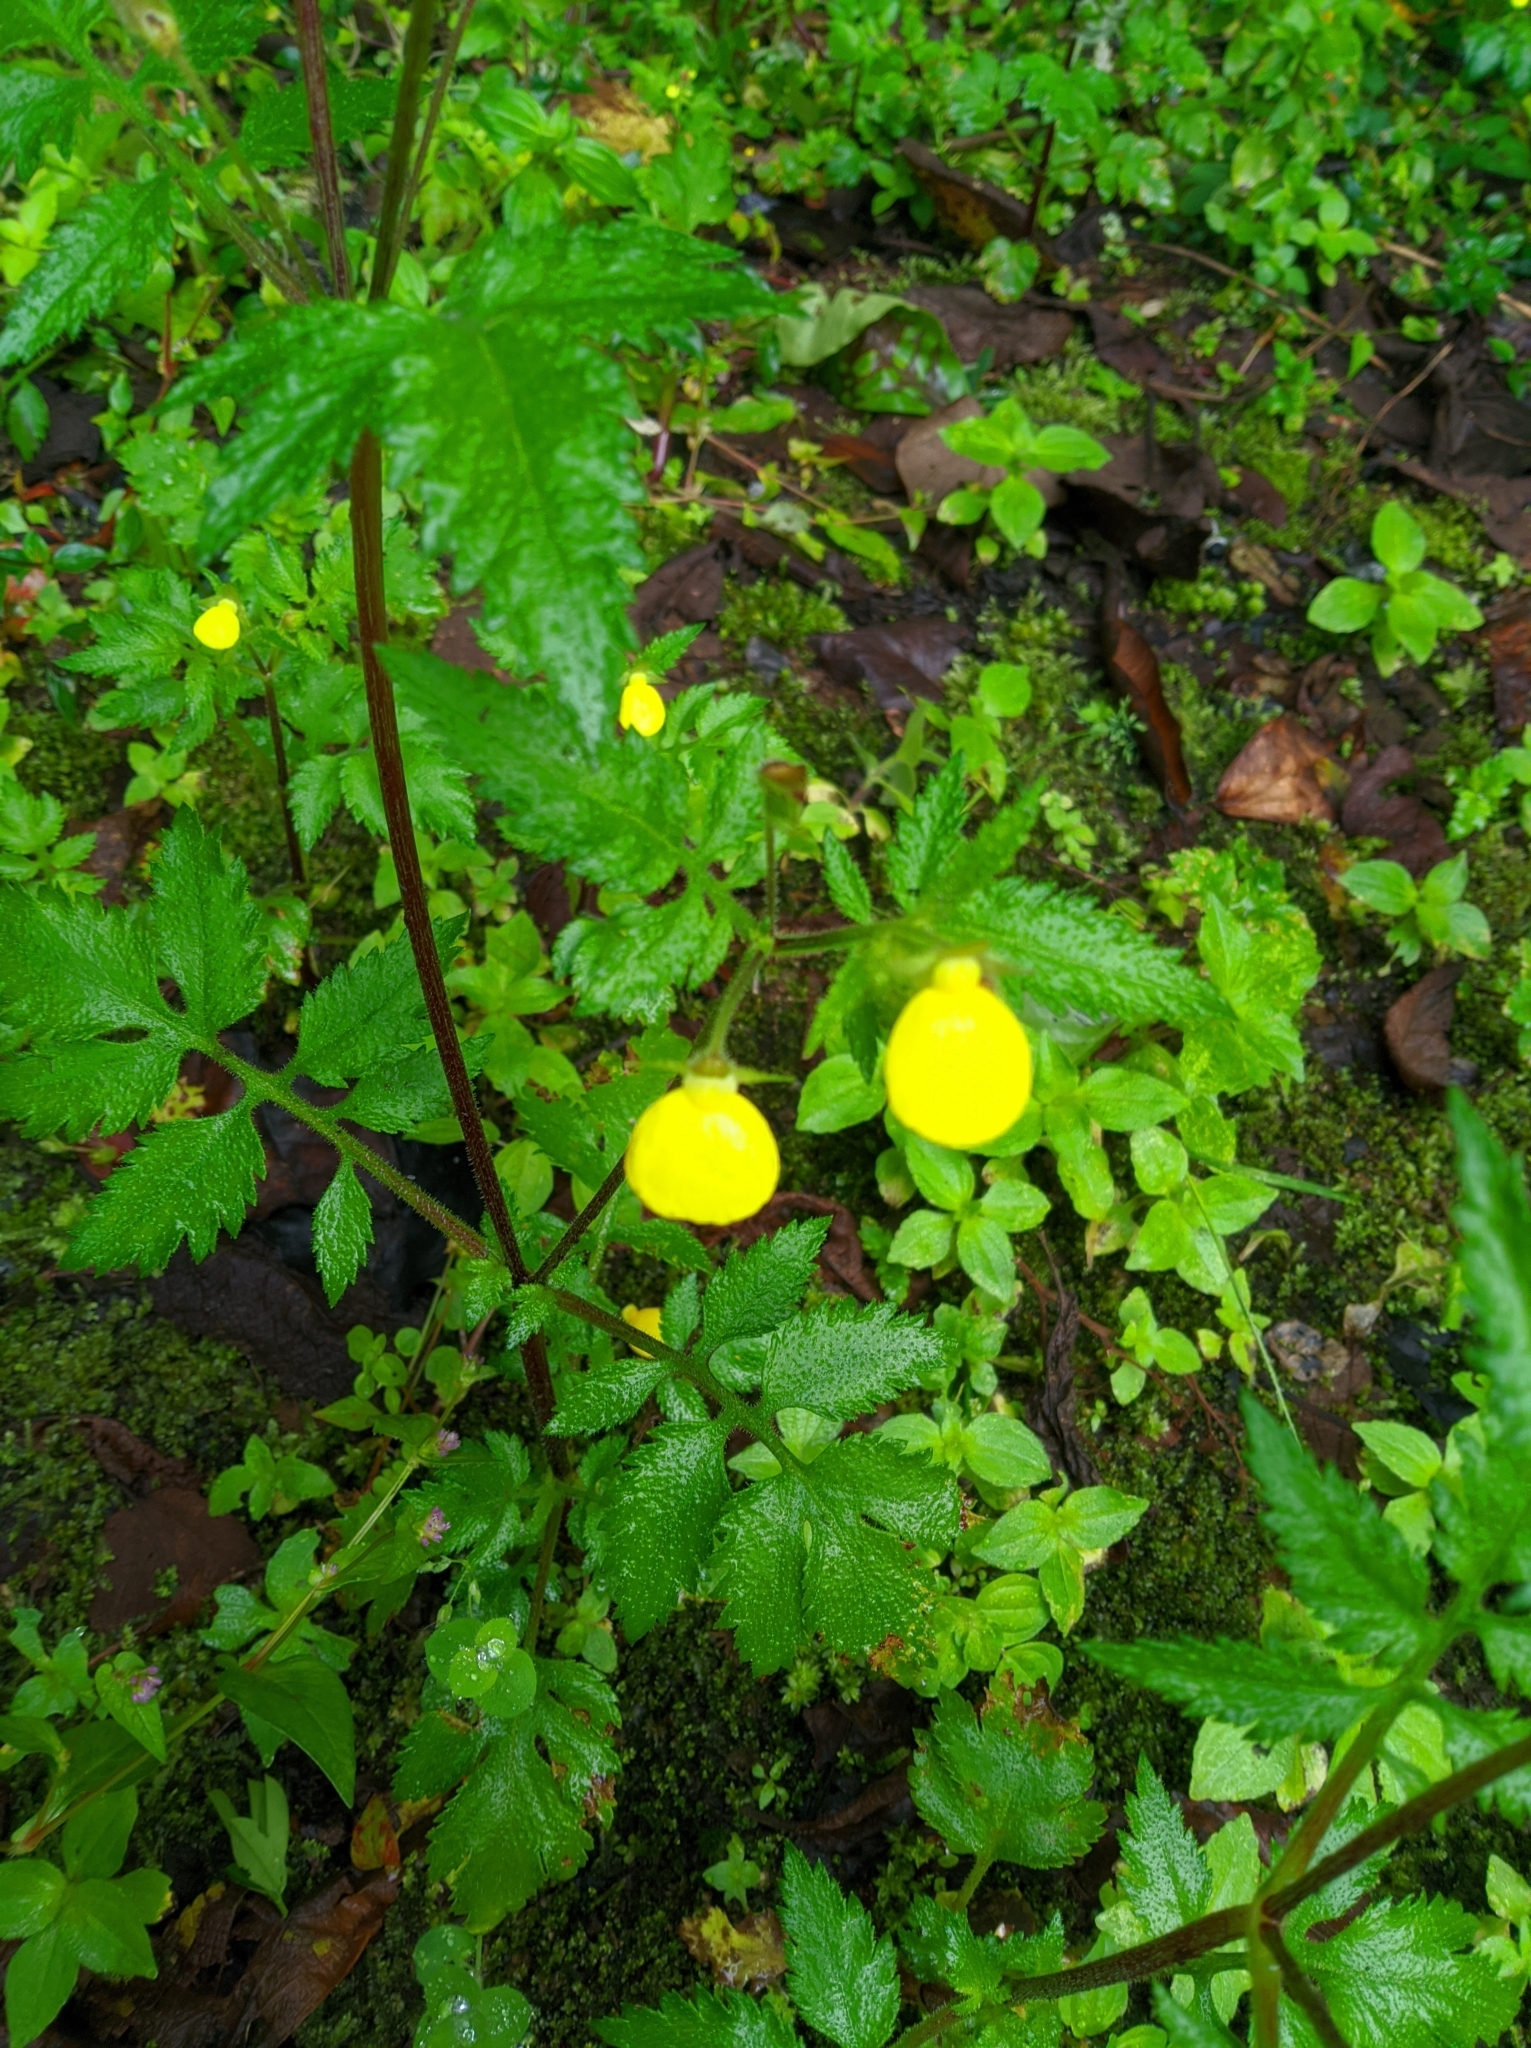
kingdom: Plantae
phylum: Tracheophyta
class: Magnoliopsida
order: Lamiales
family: Calceolariaceae
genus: Calceolaria
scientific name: Calceolaria tripartita
